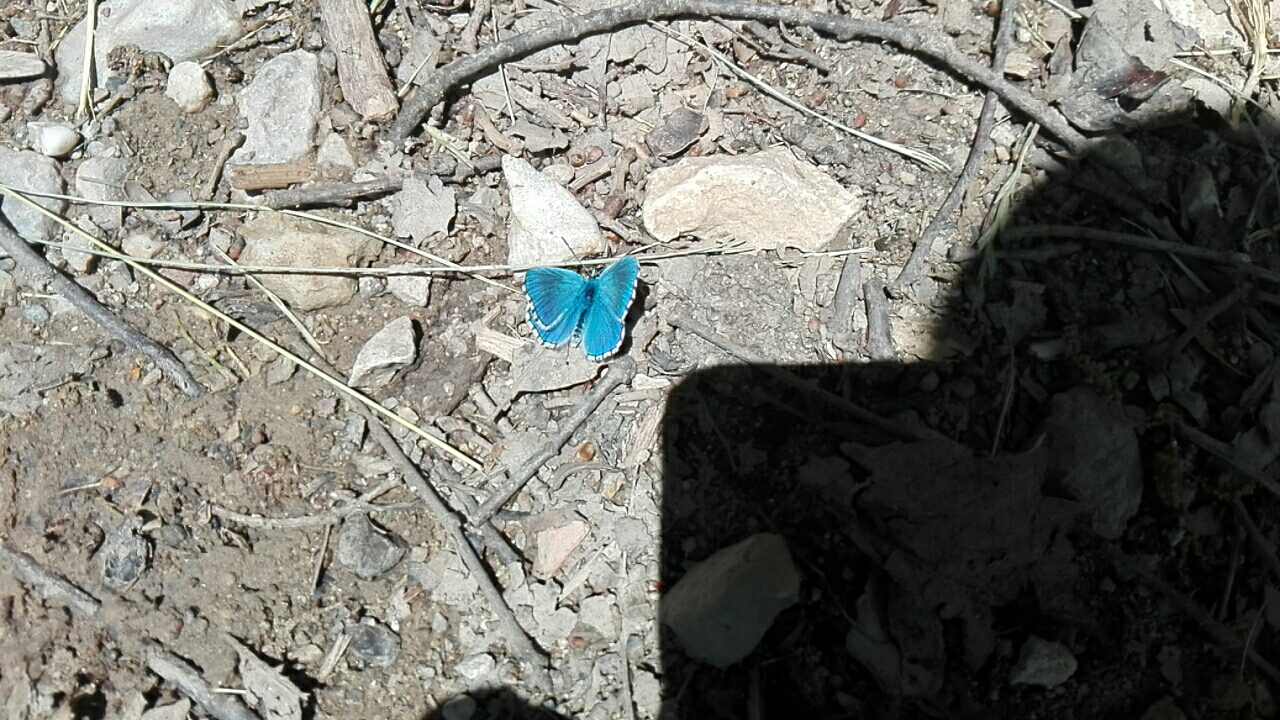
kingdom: Animalia
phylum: Arthropoda
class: Insecta
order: Lepidoptera
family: Lycaenidae
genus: Lysandra
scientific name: Lysandra bellargus
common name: Adonis blue
